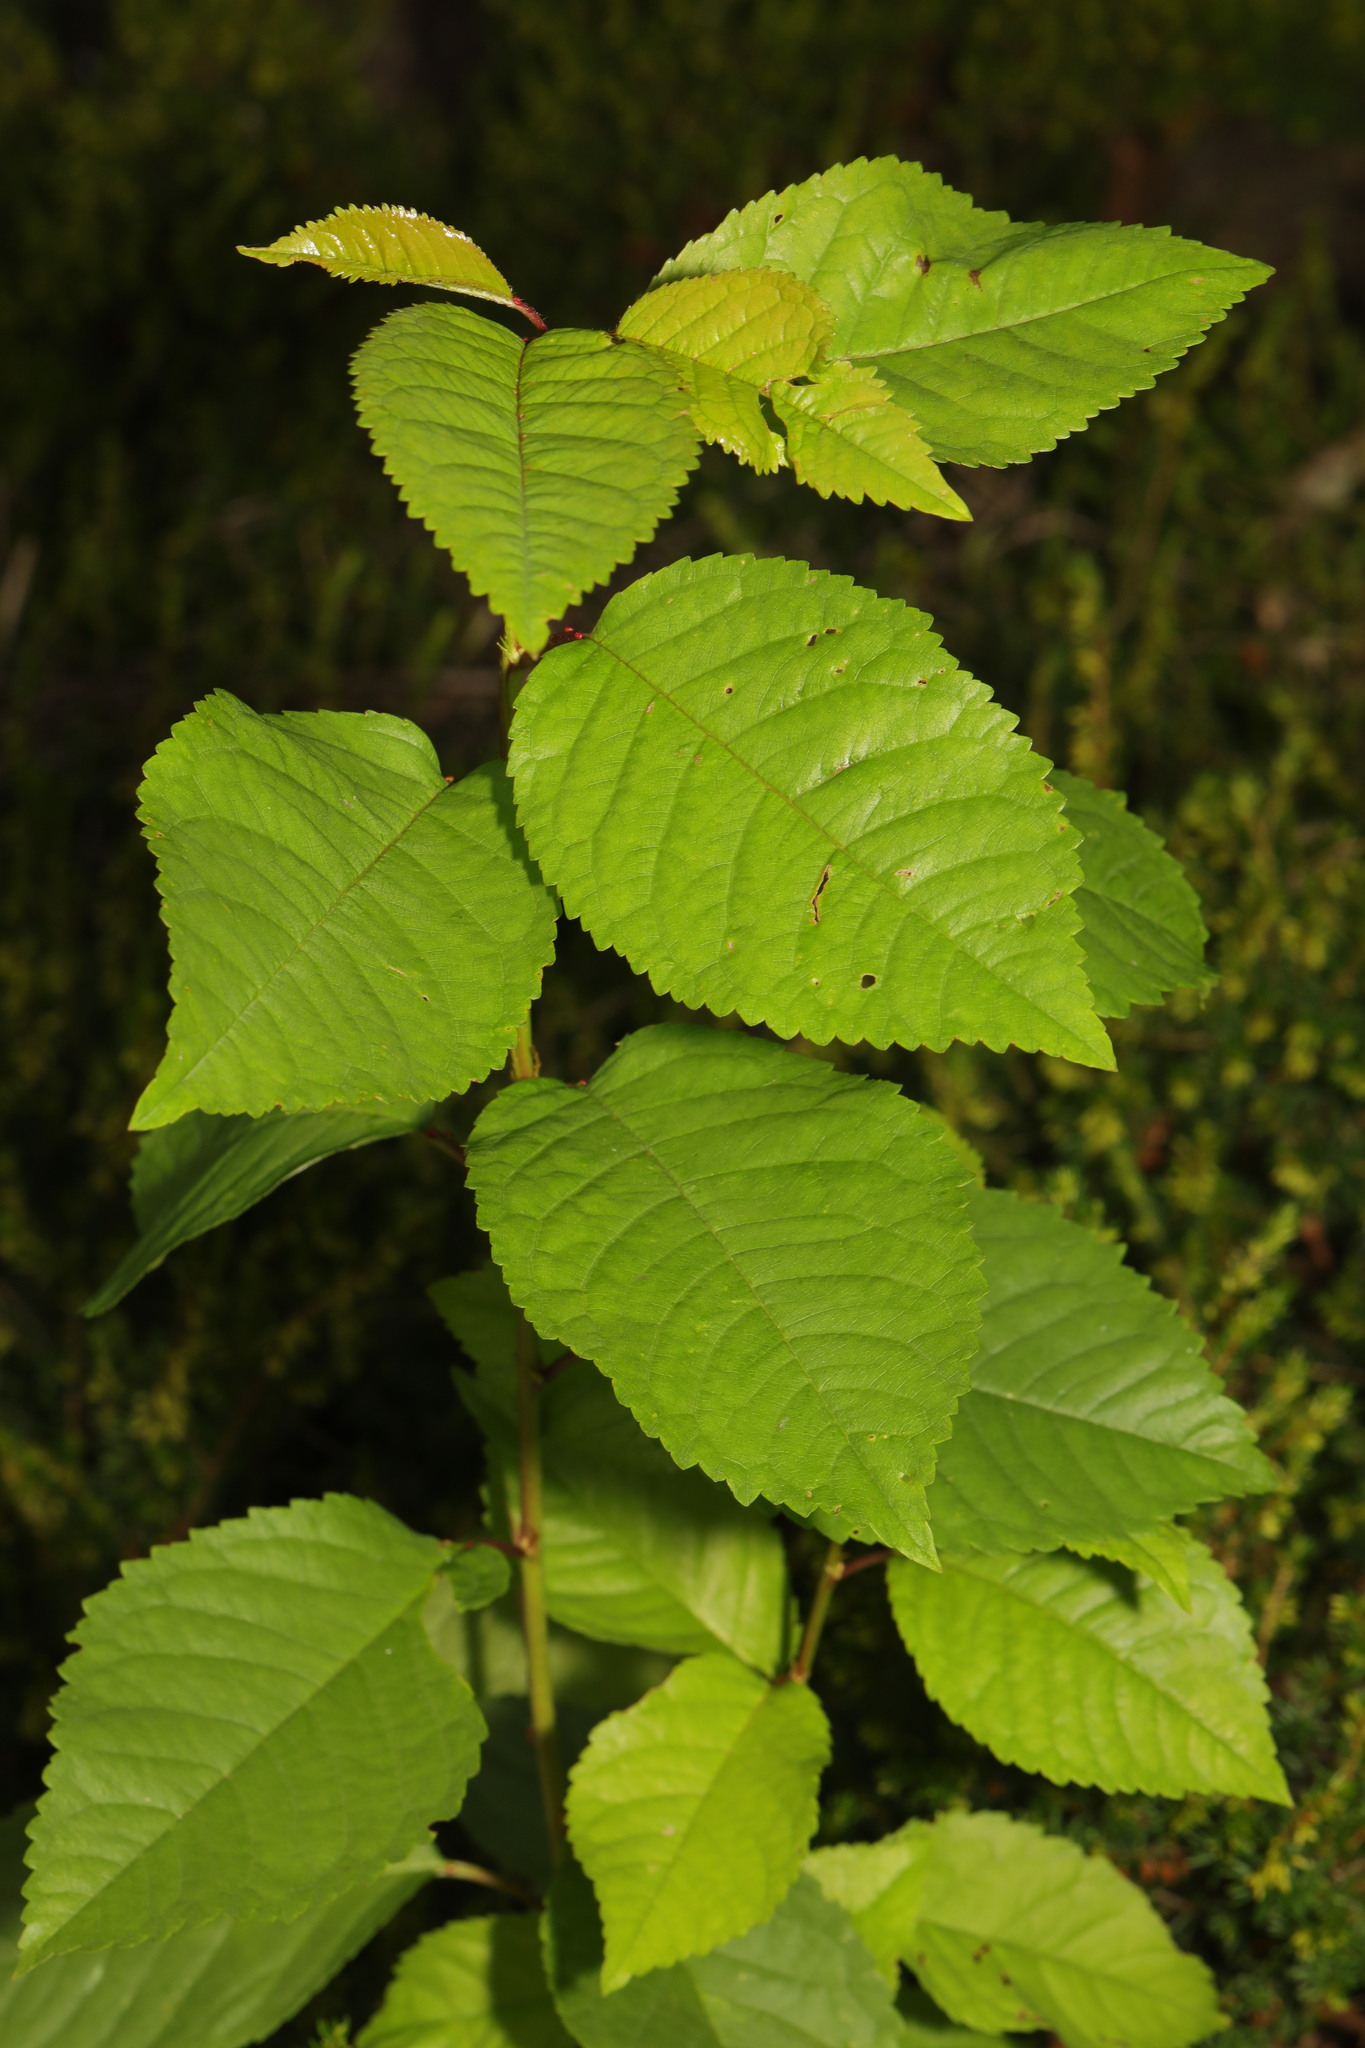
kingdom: Plantae
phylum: Tracheophyta
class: Magnoliopsida
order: Rosales
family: Rosaceae
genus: Prunus
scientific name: Prunus avium
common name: Sweet cherry
